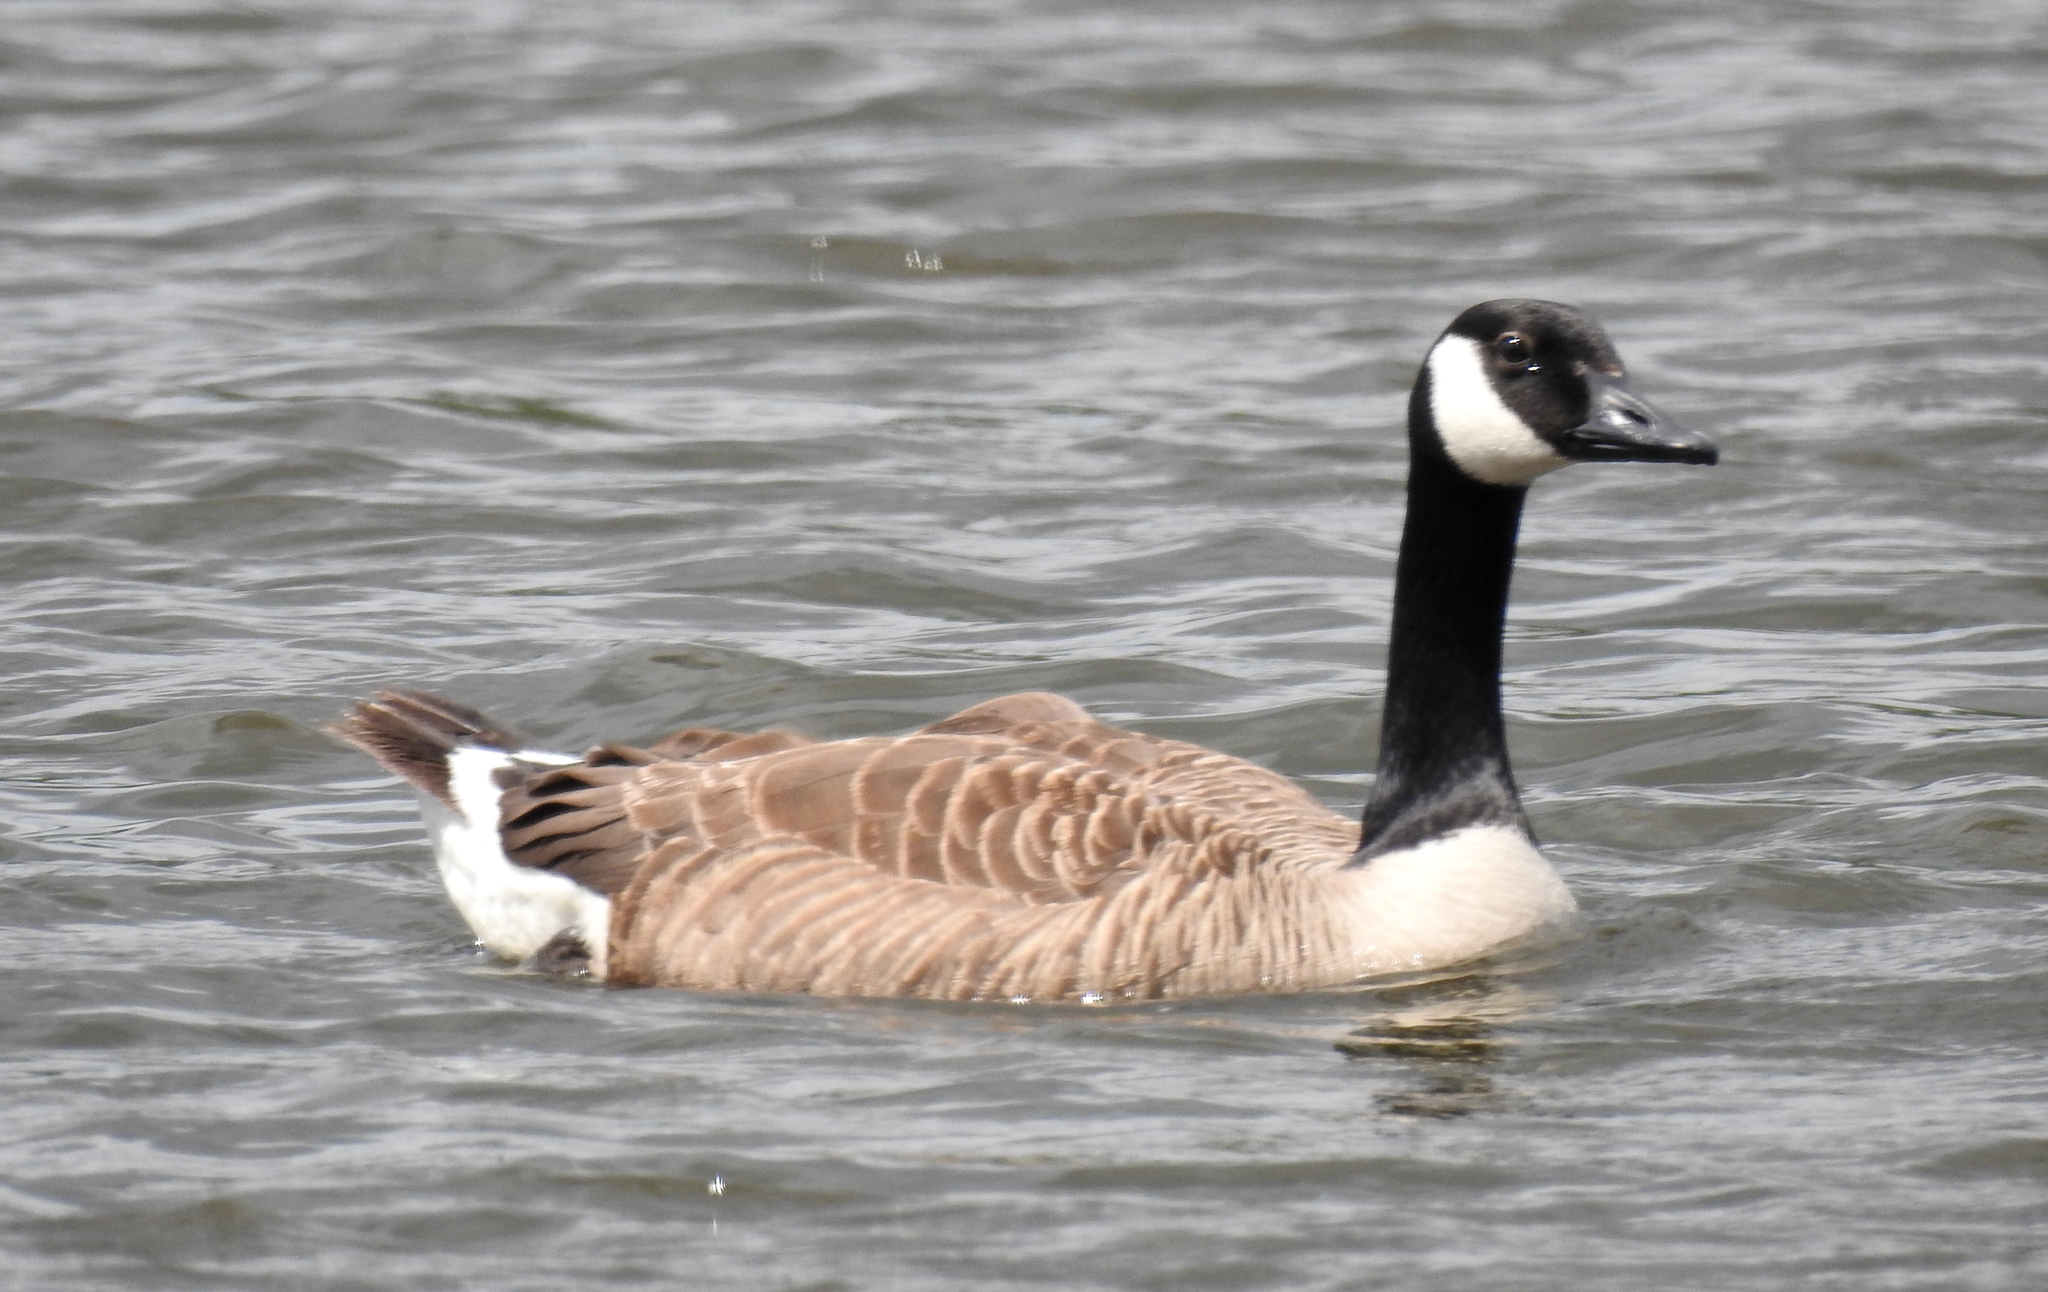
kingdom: Animalia
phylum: Chordata
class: Aves
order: Anseriformes
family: Anatidae
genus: Branta
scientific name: Branta canadensis
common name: Canada goose
